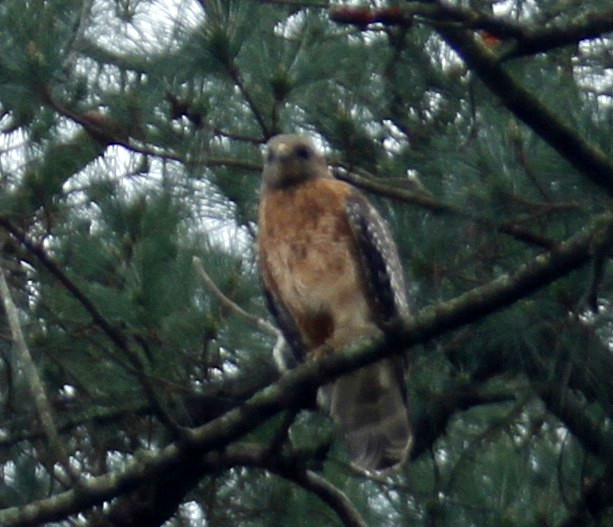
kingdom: Animalia
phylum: Chordata
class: Aves
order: Accipitriformes
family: Accipitridae
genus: Buteo
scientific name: Buteo lineatus
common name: Red-shouldered hawk
